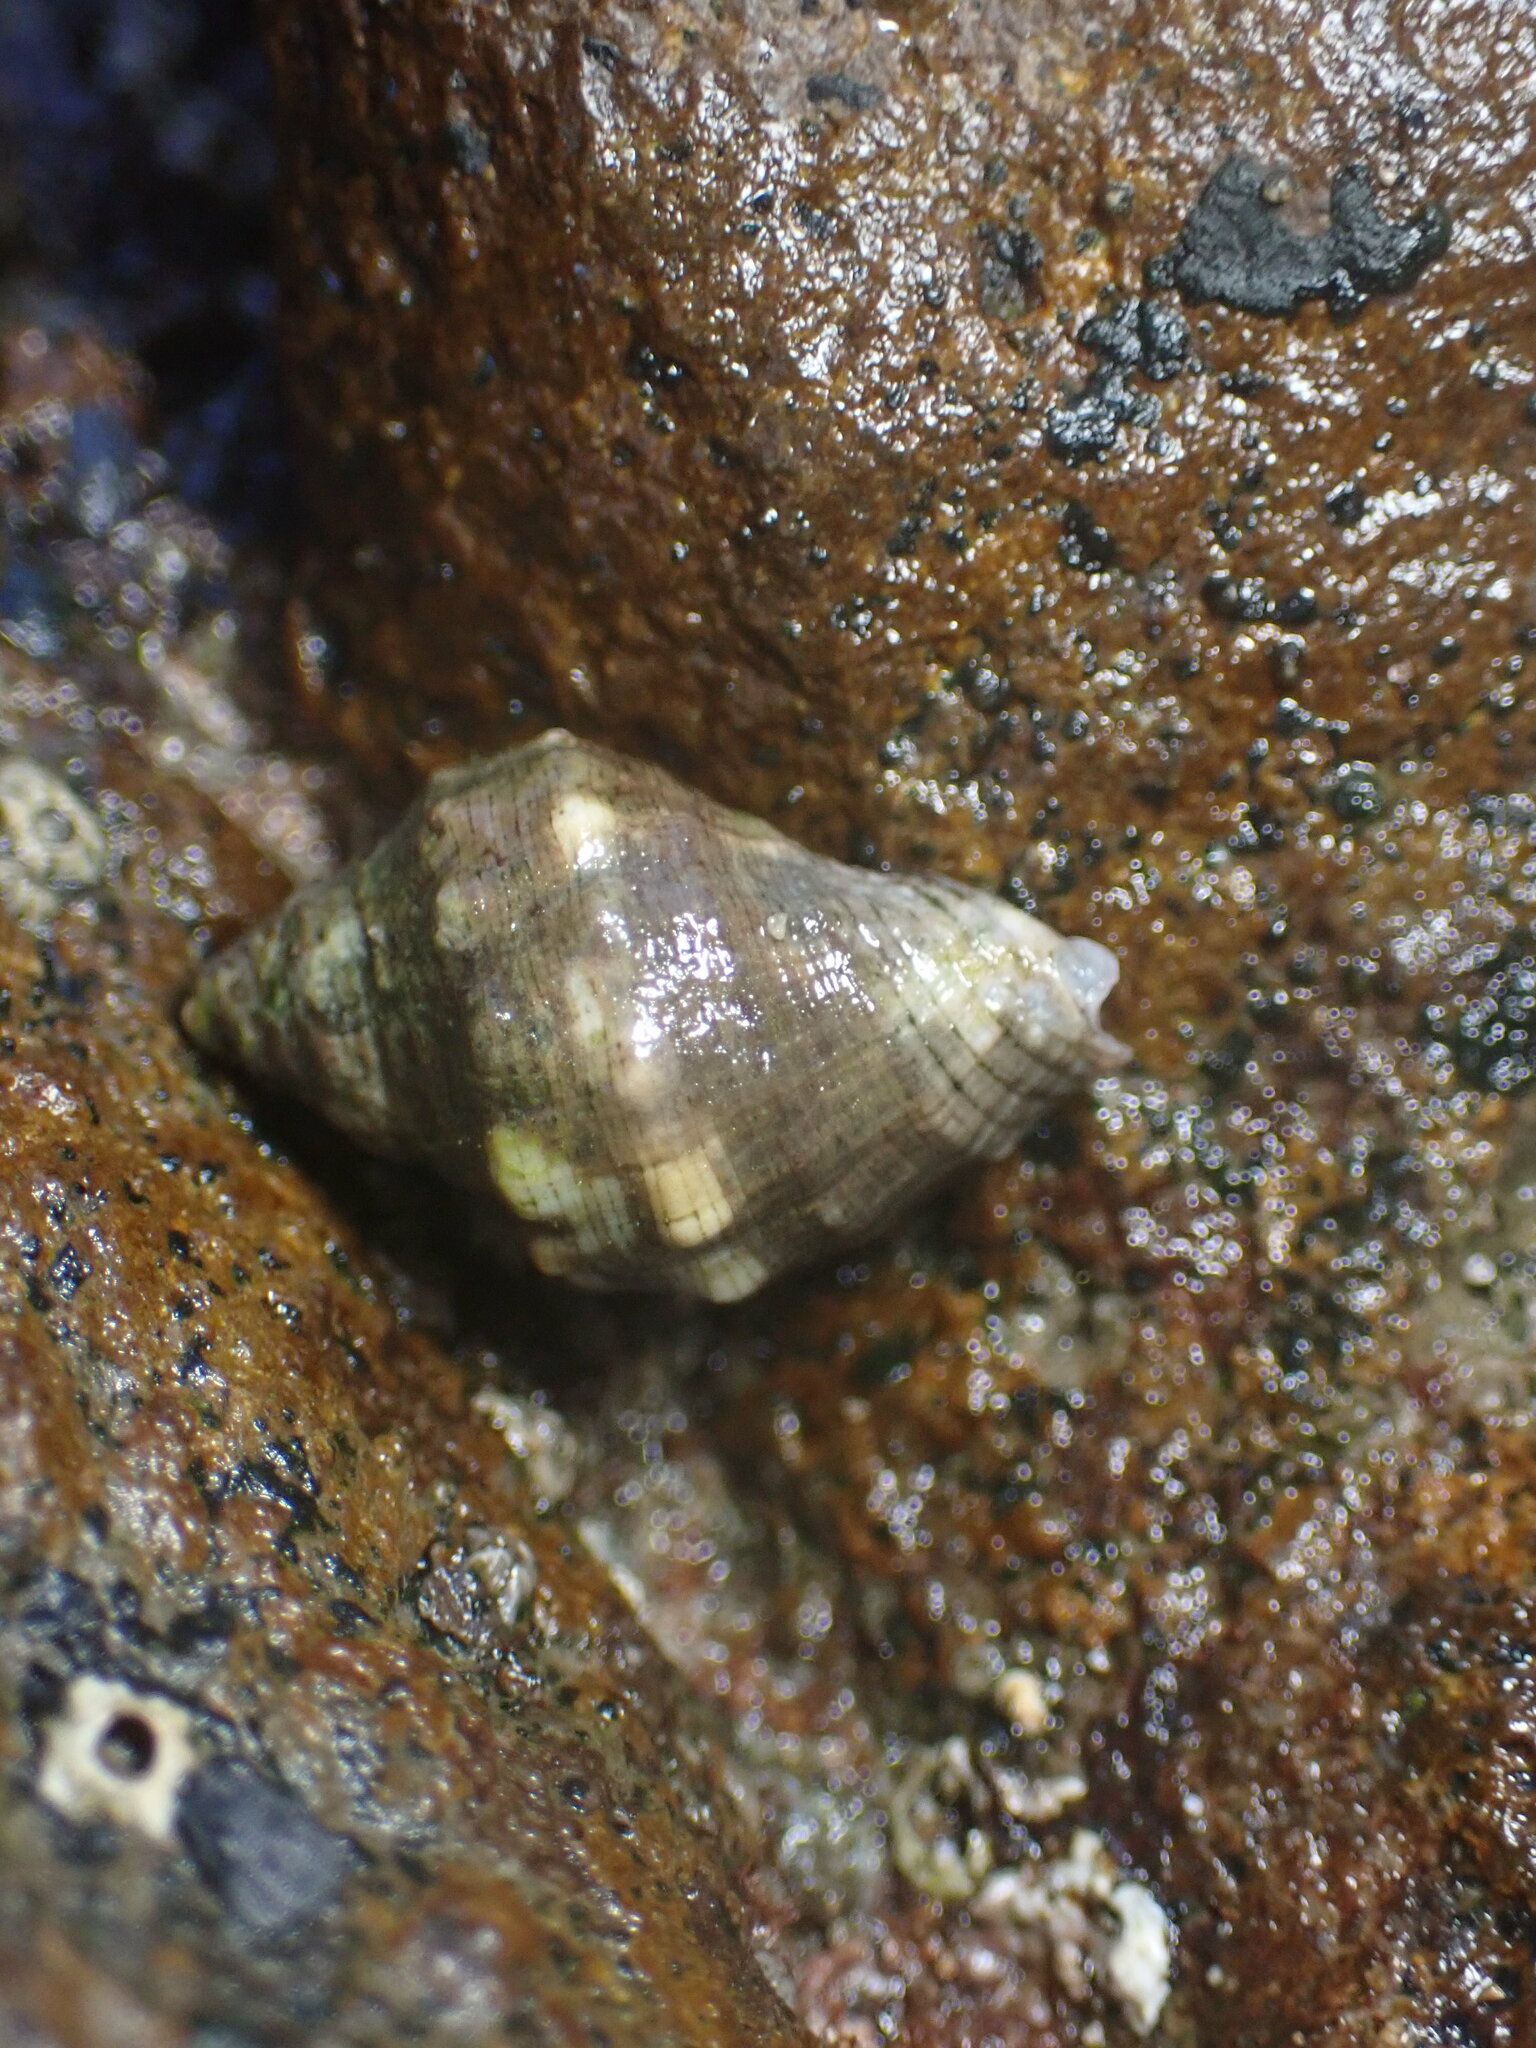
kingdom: Animalia
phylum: Mollusca
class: Gastropoda
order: Neogastropoda
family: Muricidae
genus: Stramonita
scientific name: Stramonita haemastoma
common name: Florida dog winkle
